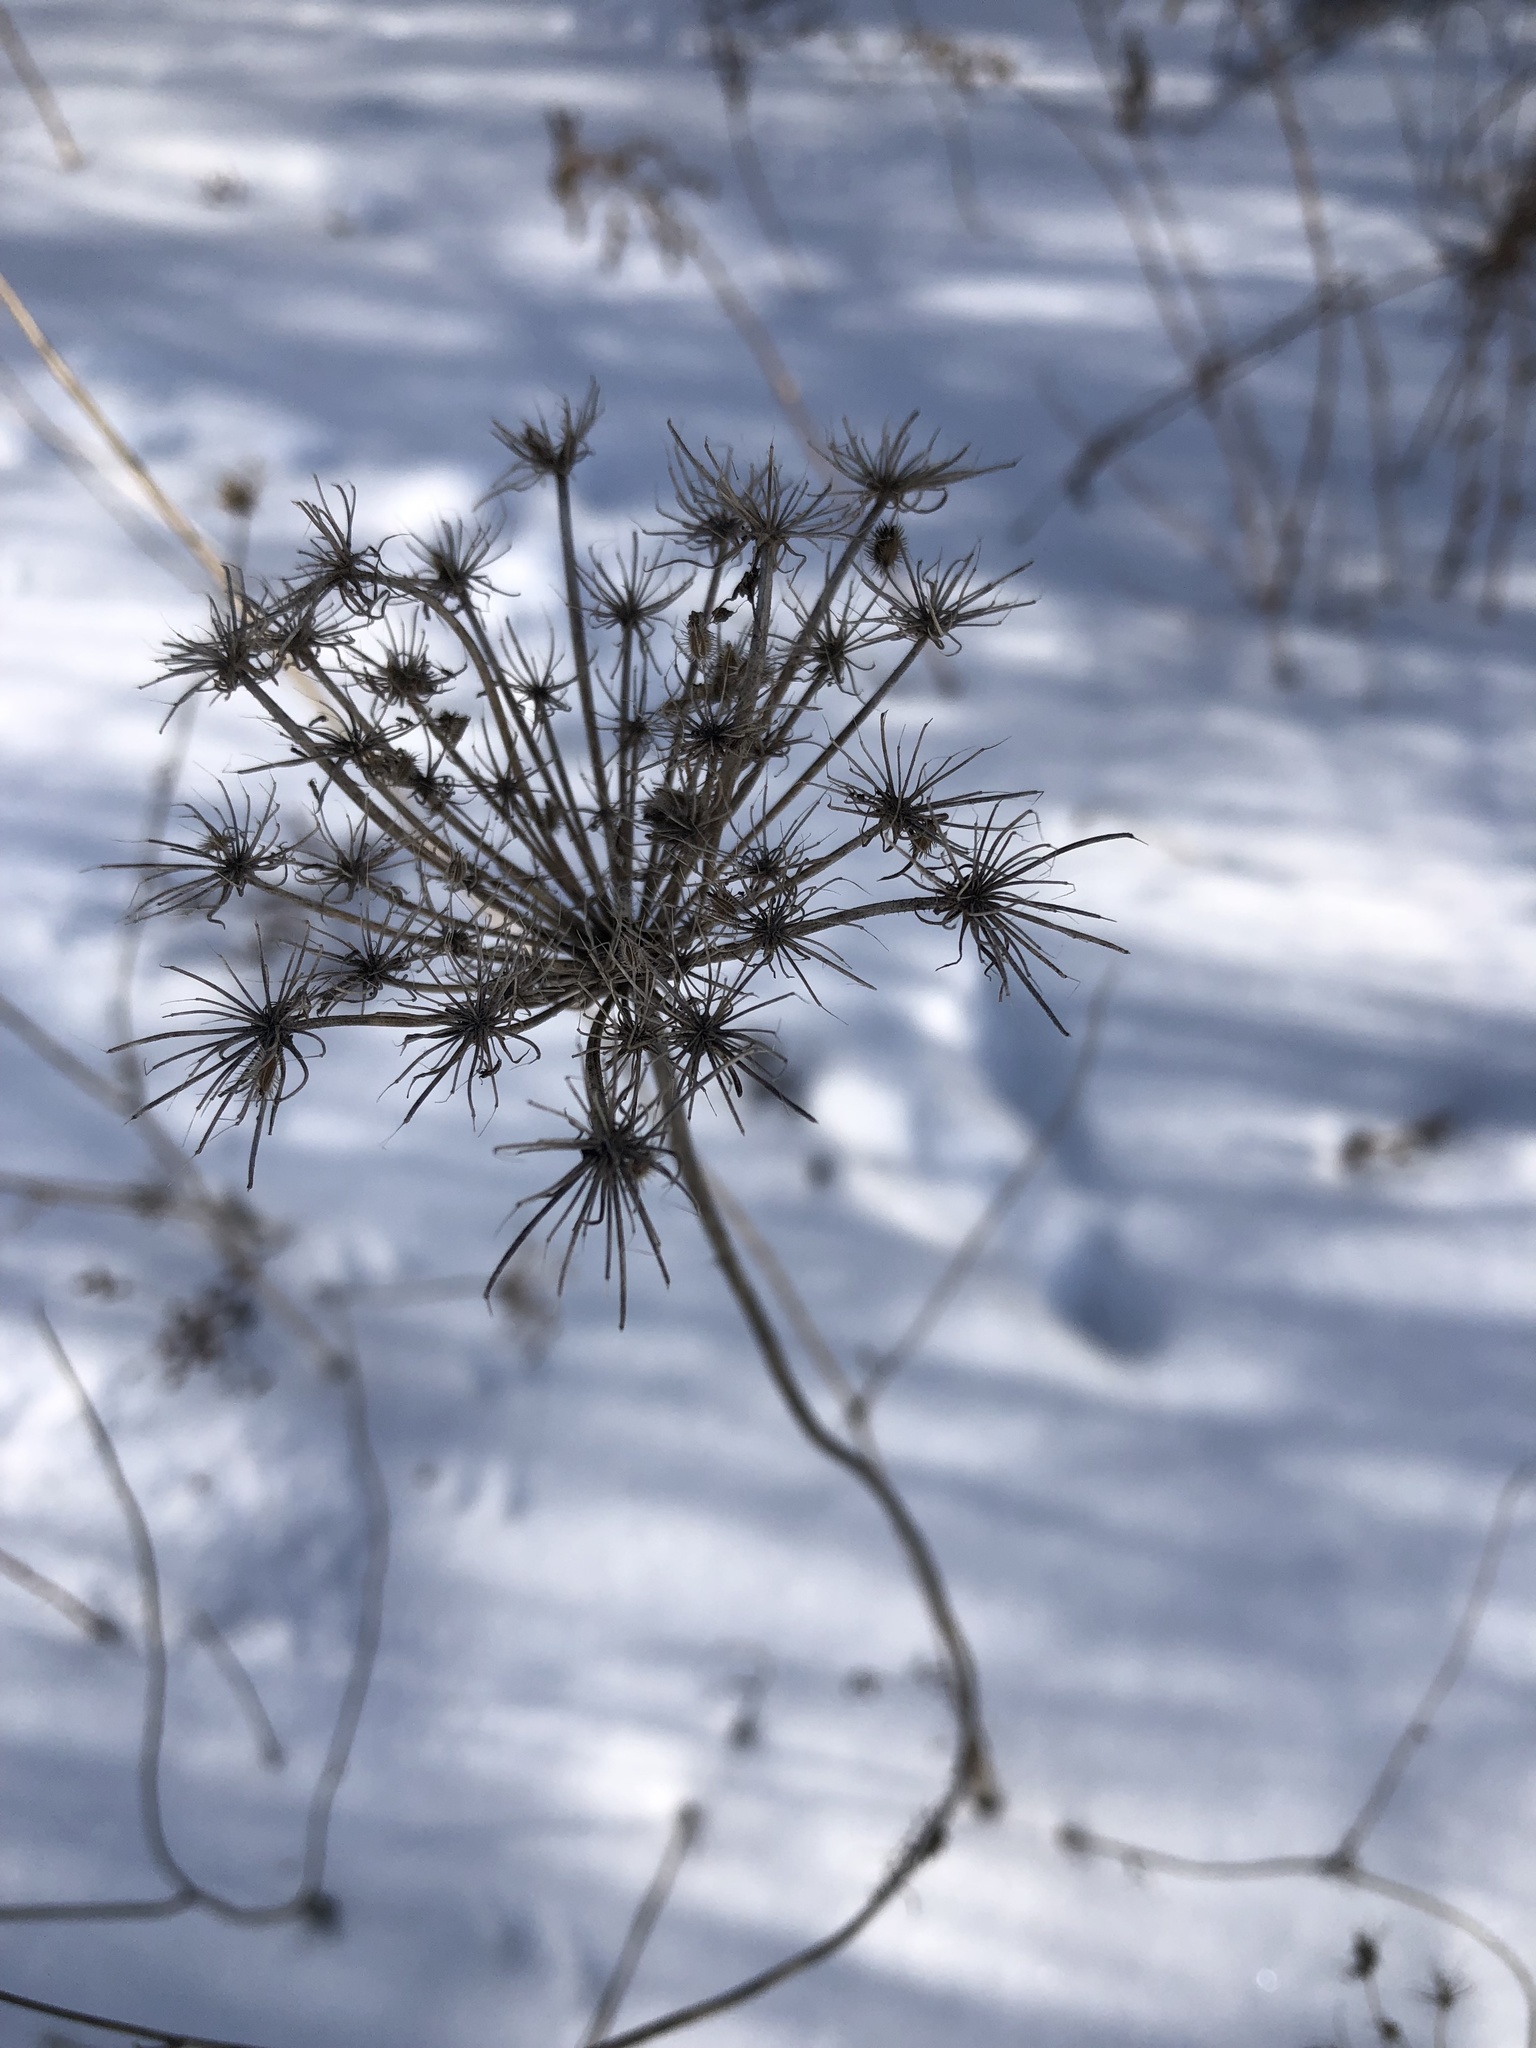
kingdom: Plantae
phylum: Tracheophyta
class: Magnoliopsida
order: Apiales
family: Apiaceae
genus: Daucus
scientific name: Daucus carota
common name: Wild carrot
